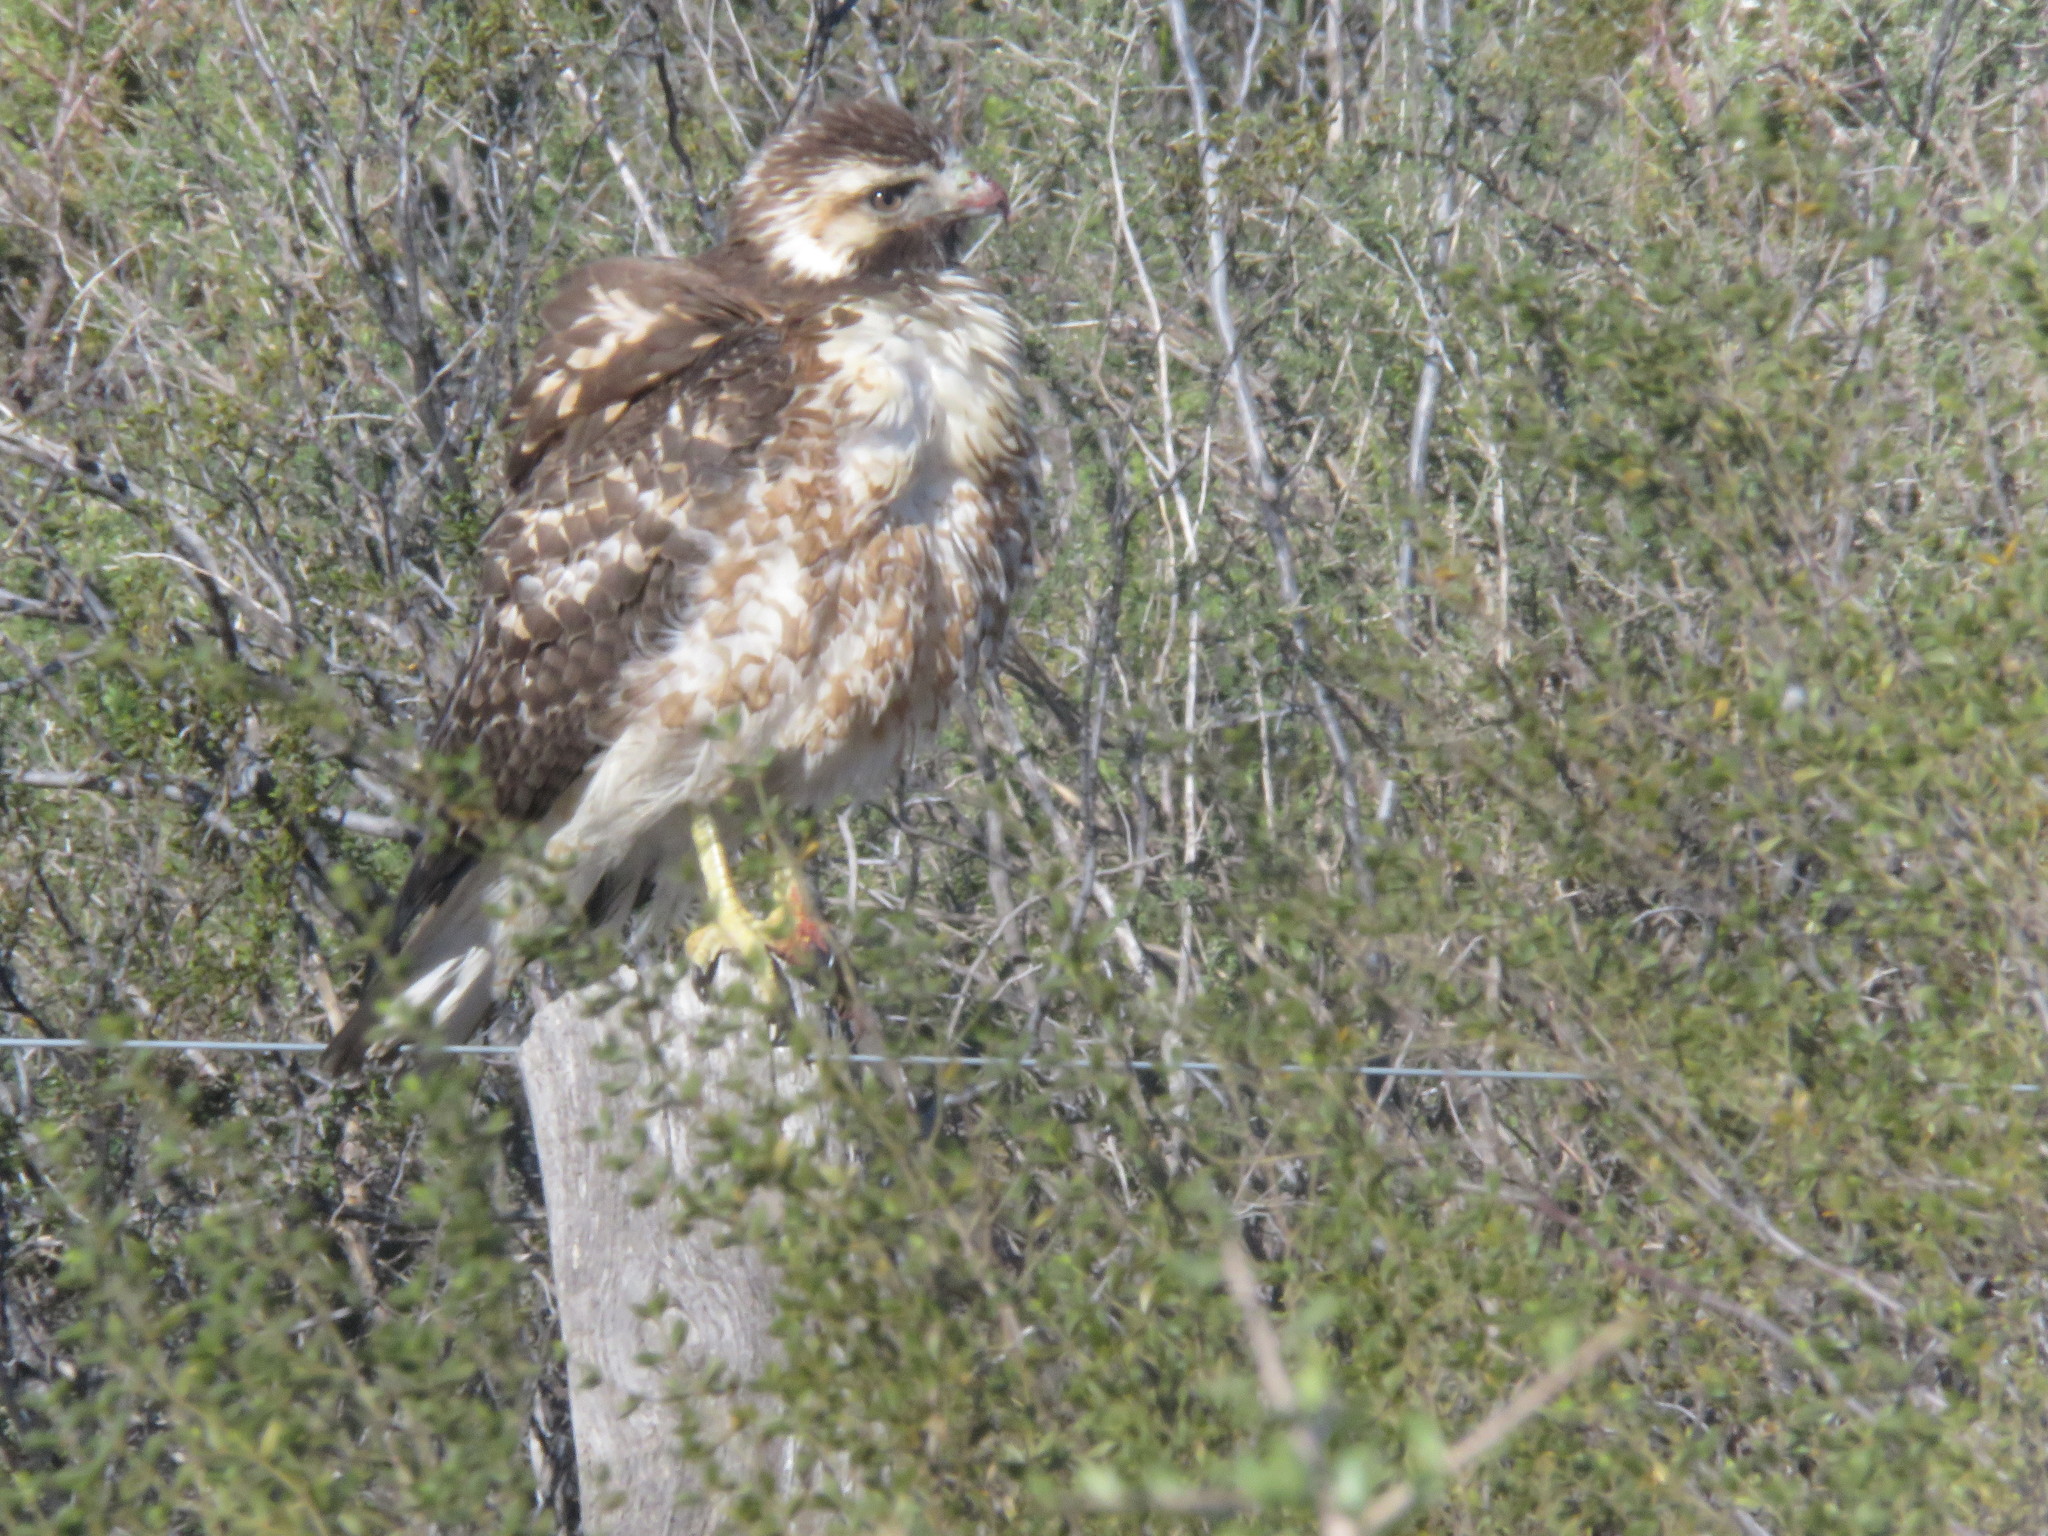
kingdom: Animalia
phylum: Chordata
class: Aves
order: Accipitriformes
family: Accipitridae
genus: Buteo
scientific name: Buteo polyosoma
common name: Variable hawk
